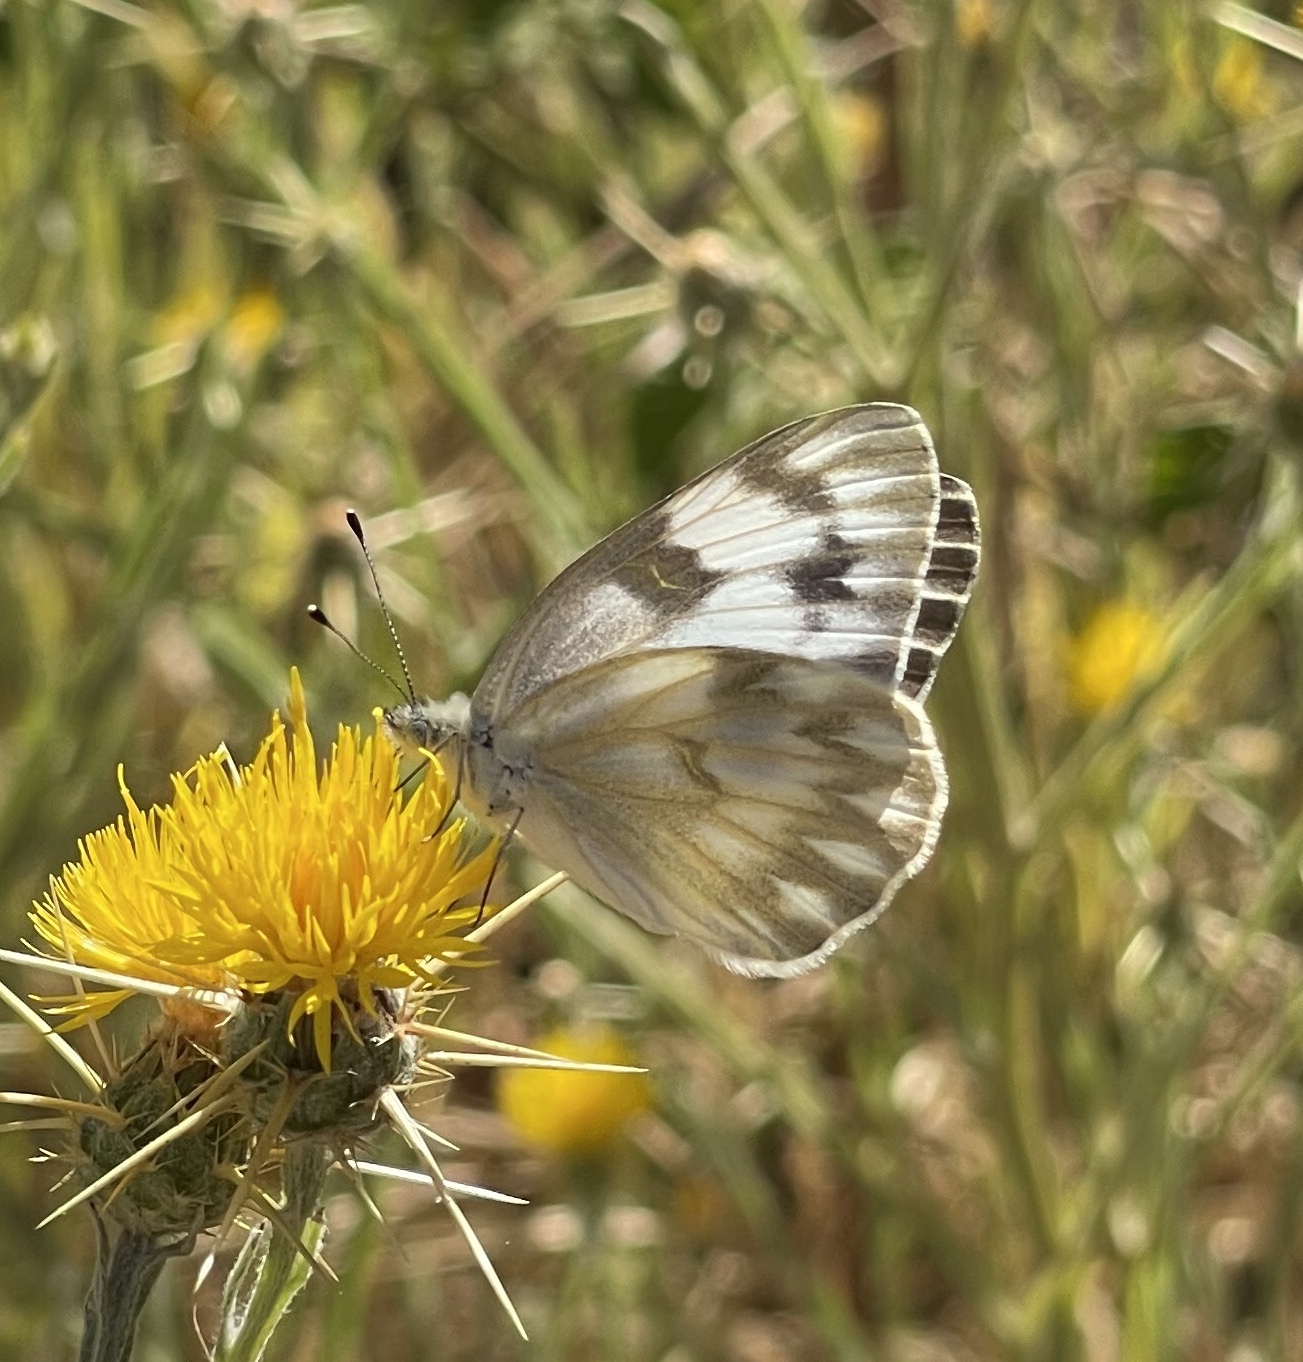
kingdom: Animalia
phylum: Arthropoda
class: Insecta
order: Lepidoptera
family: Pieridae
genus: Pontia
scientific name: Pontia protodice
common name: Checkered white
